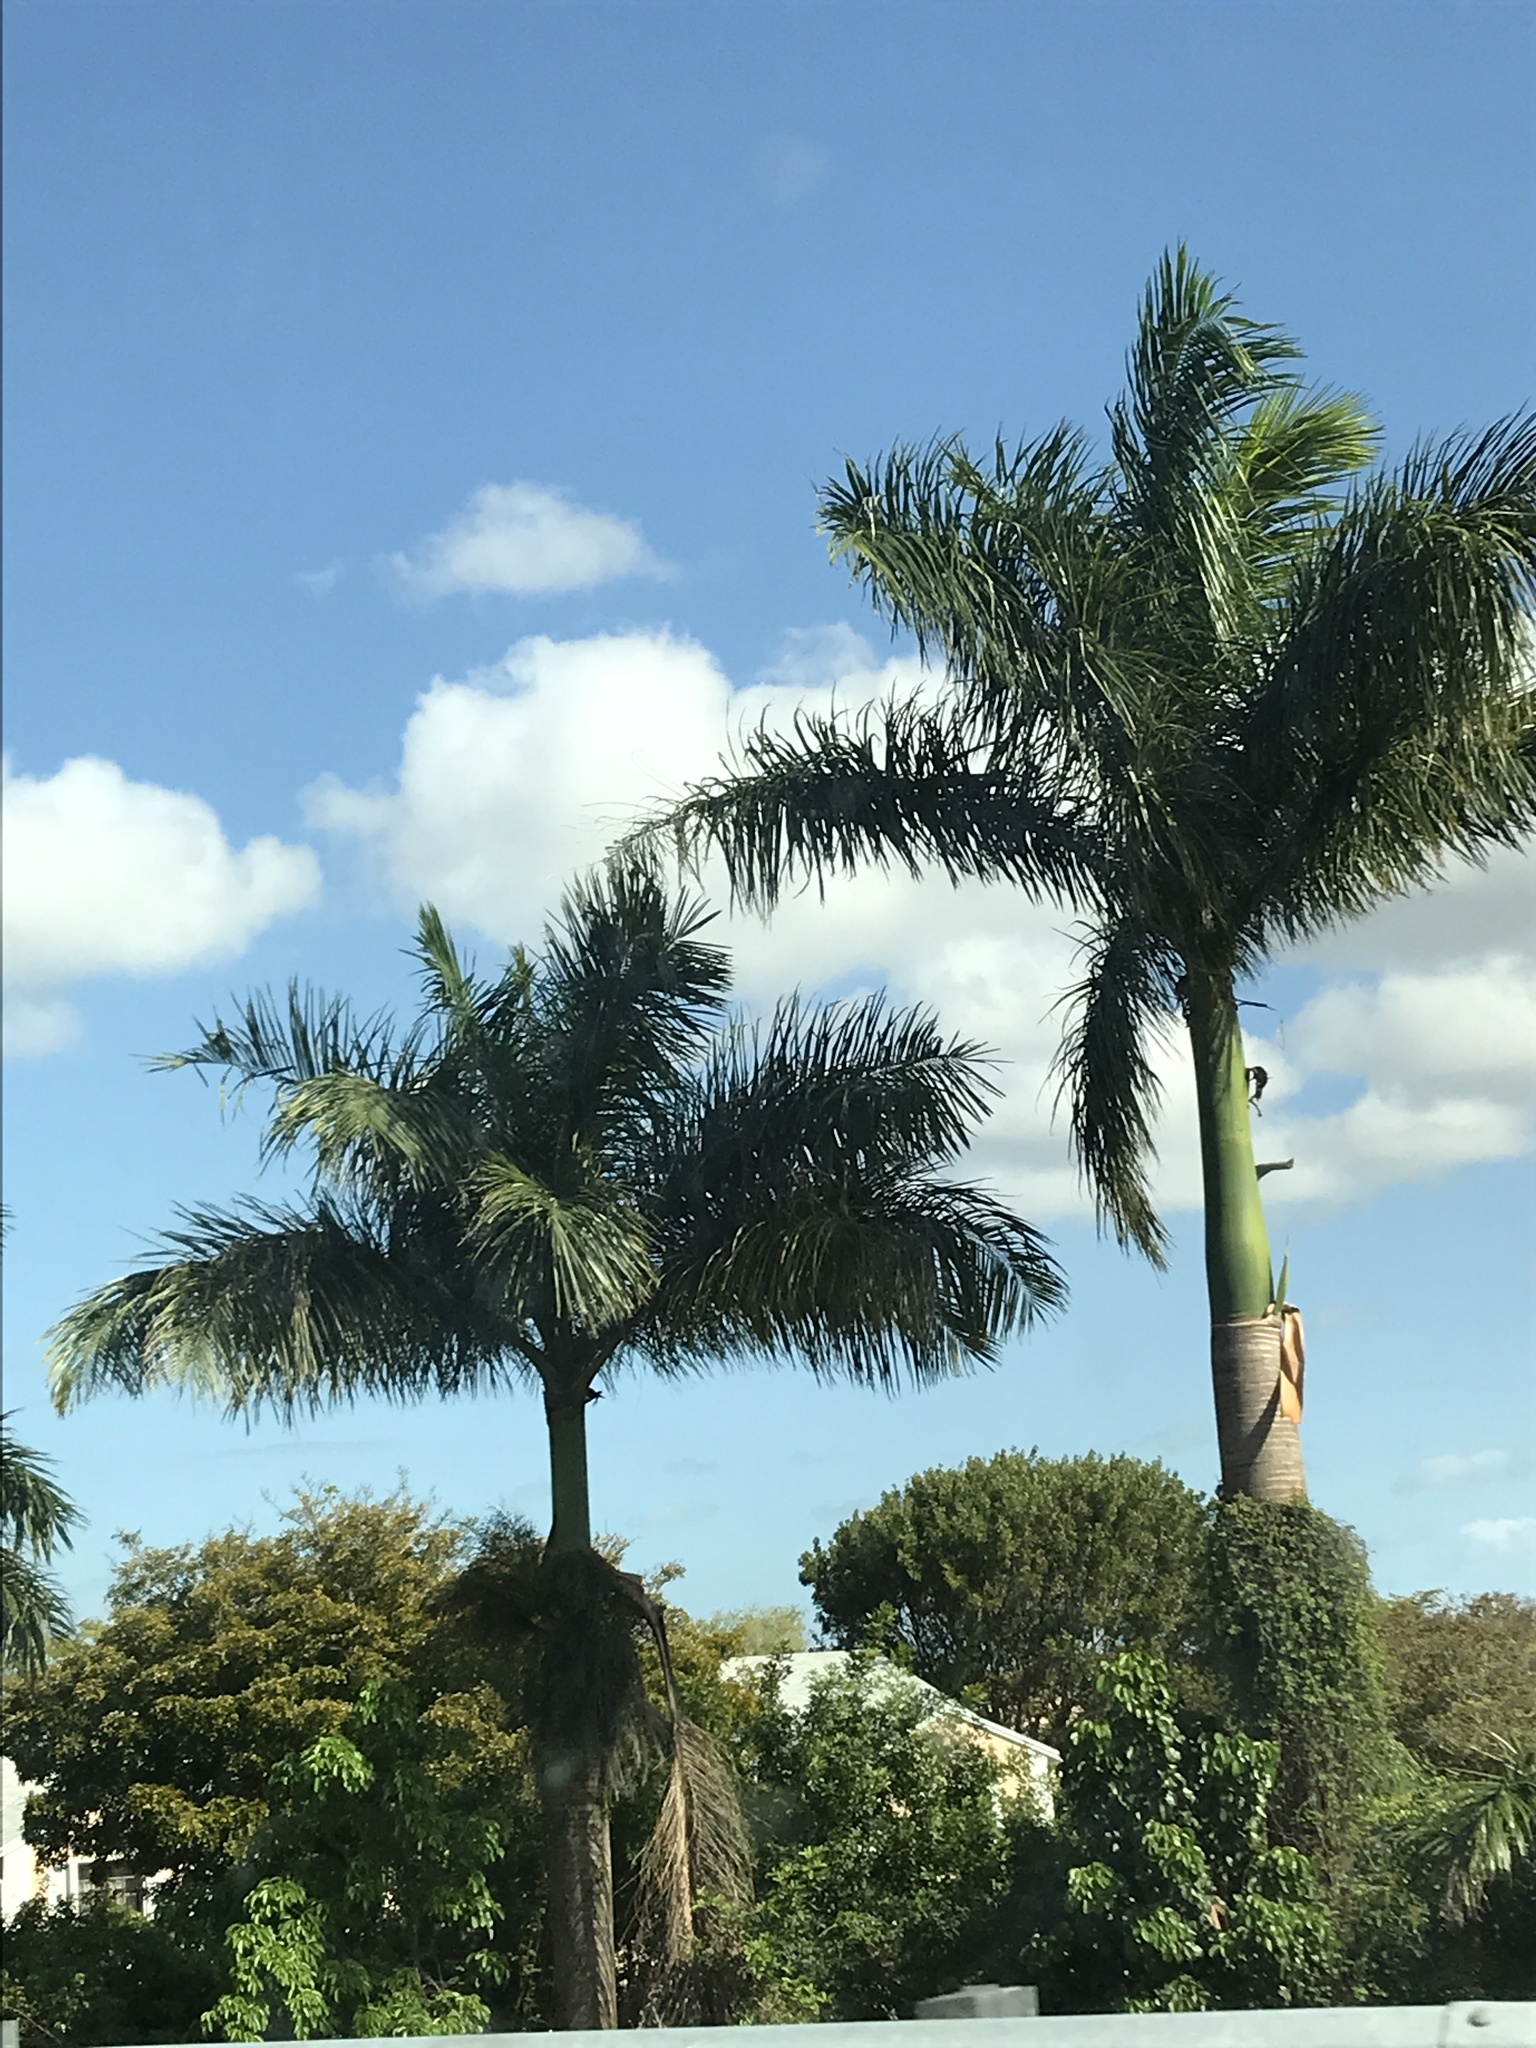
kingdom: Plantae
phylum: Tracheophyta
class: Liliopsida
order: Arecales
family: Arecaceae
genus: Roystonea
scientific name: Roystonea regia
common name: Florida royal palm
